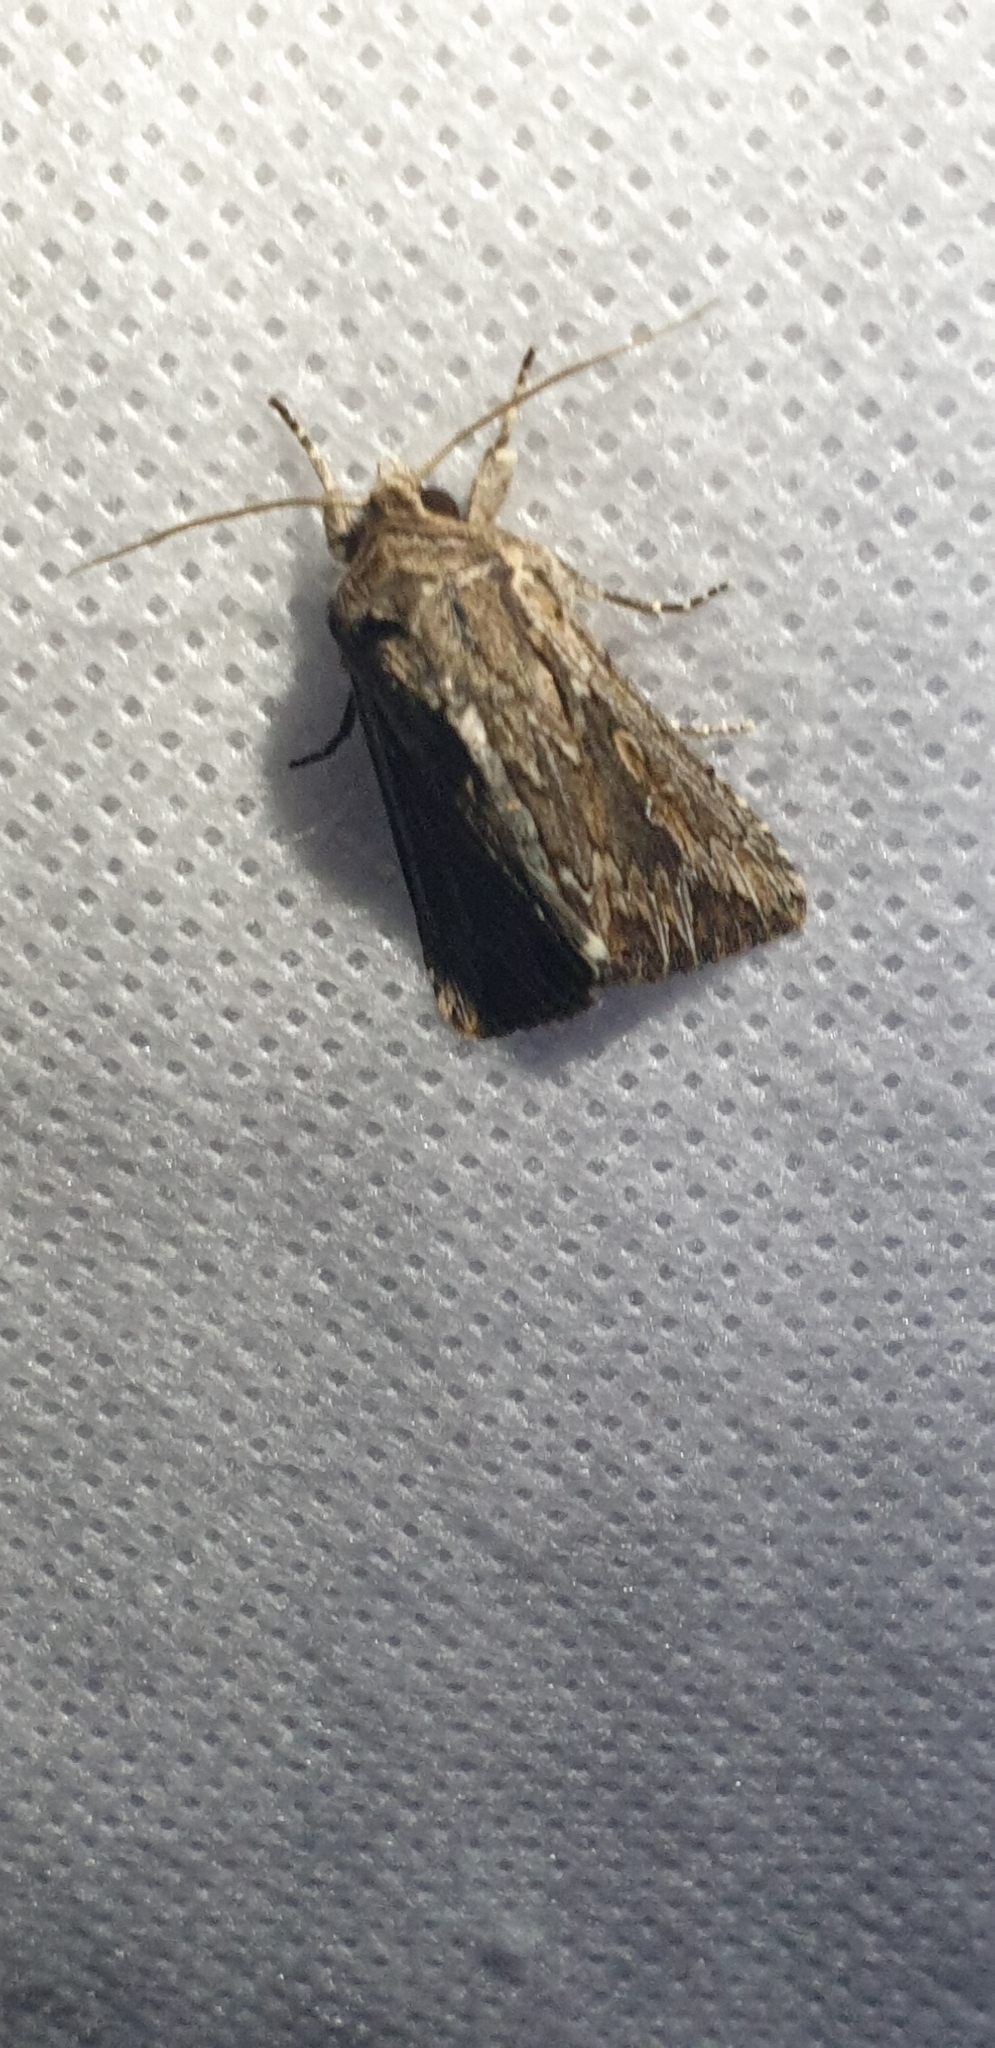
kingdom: Animalia
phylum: Arthropoda
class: Insecta
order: Lepidoptera
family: Noctuidae
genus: Persectania
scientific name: Persectania dyscrita
